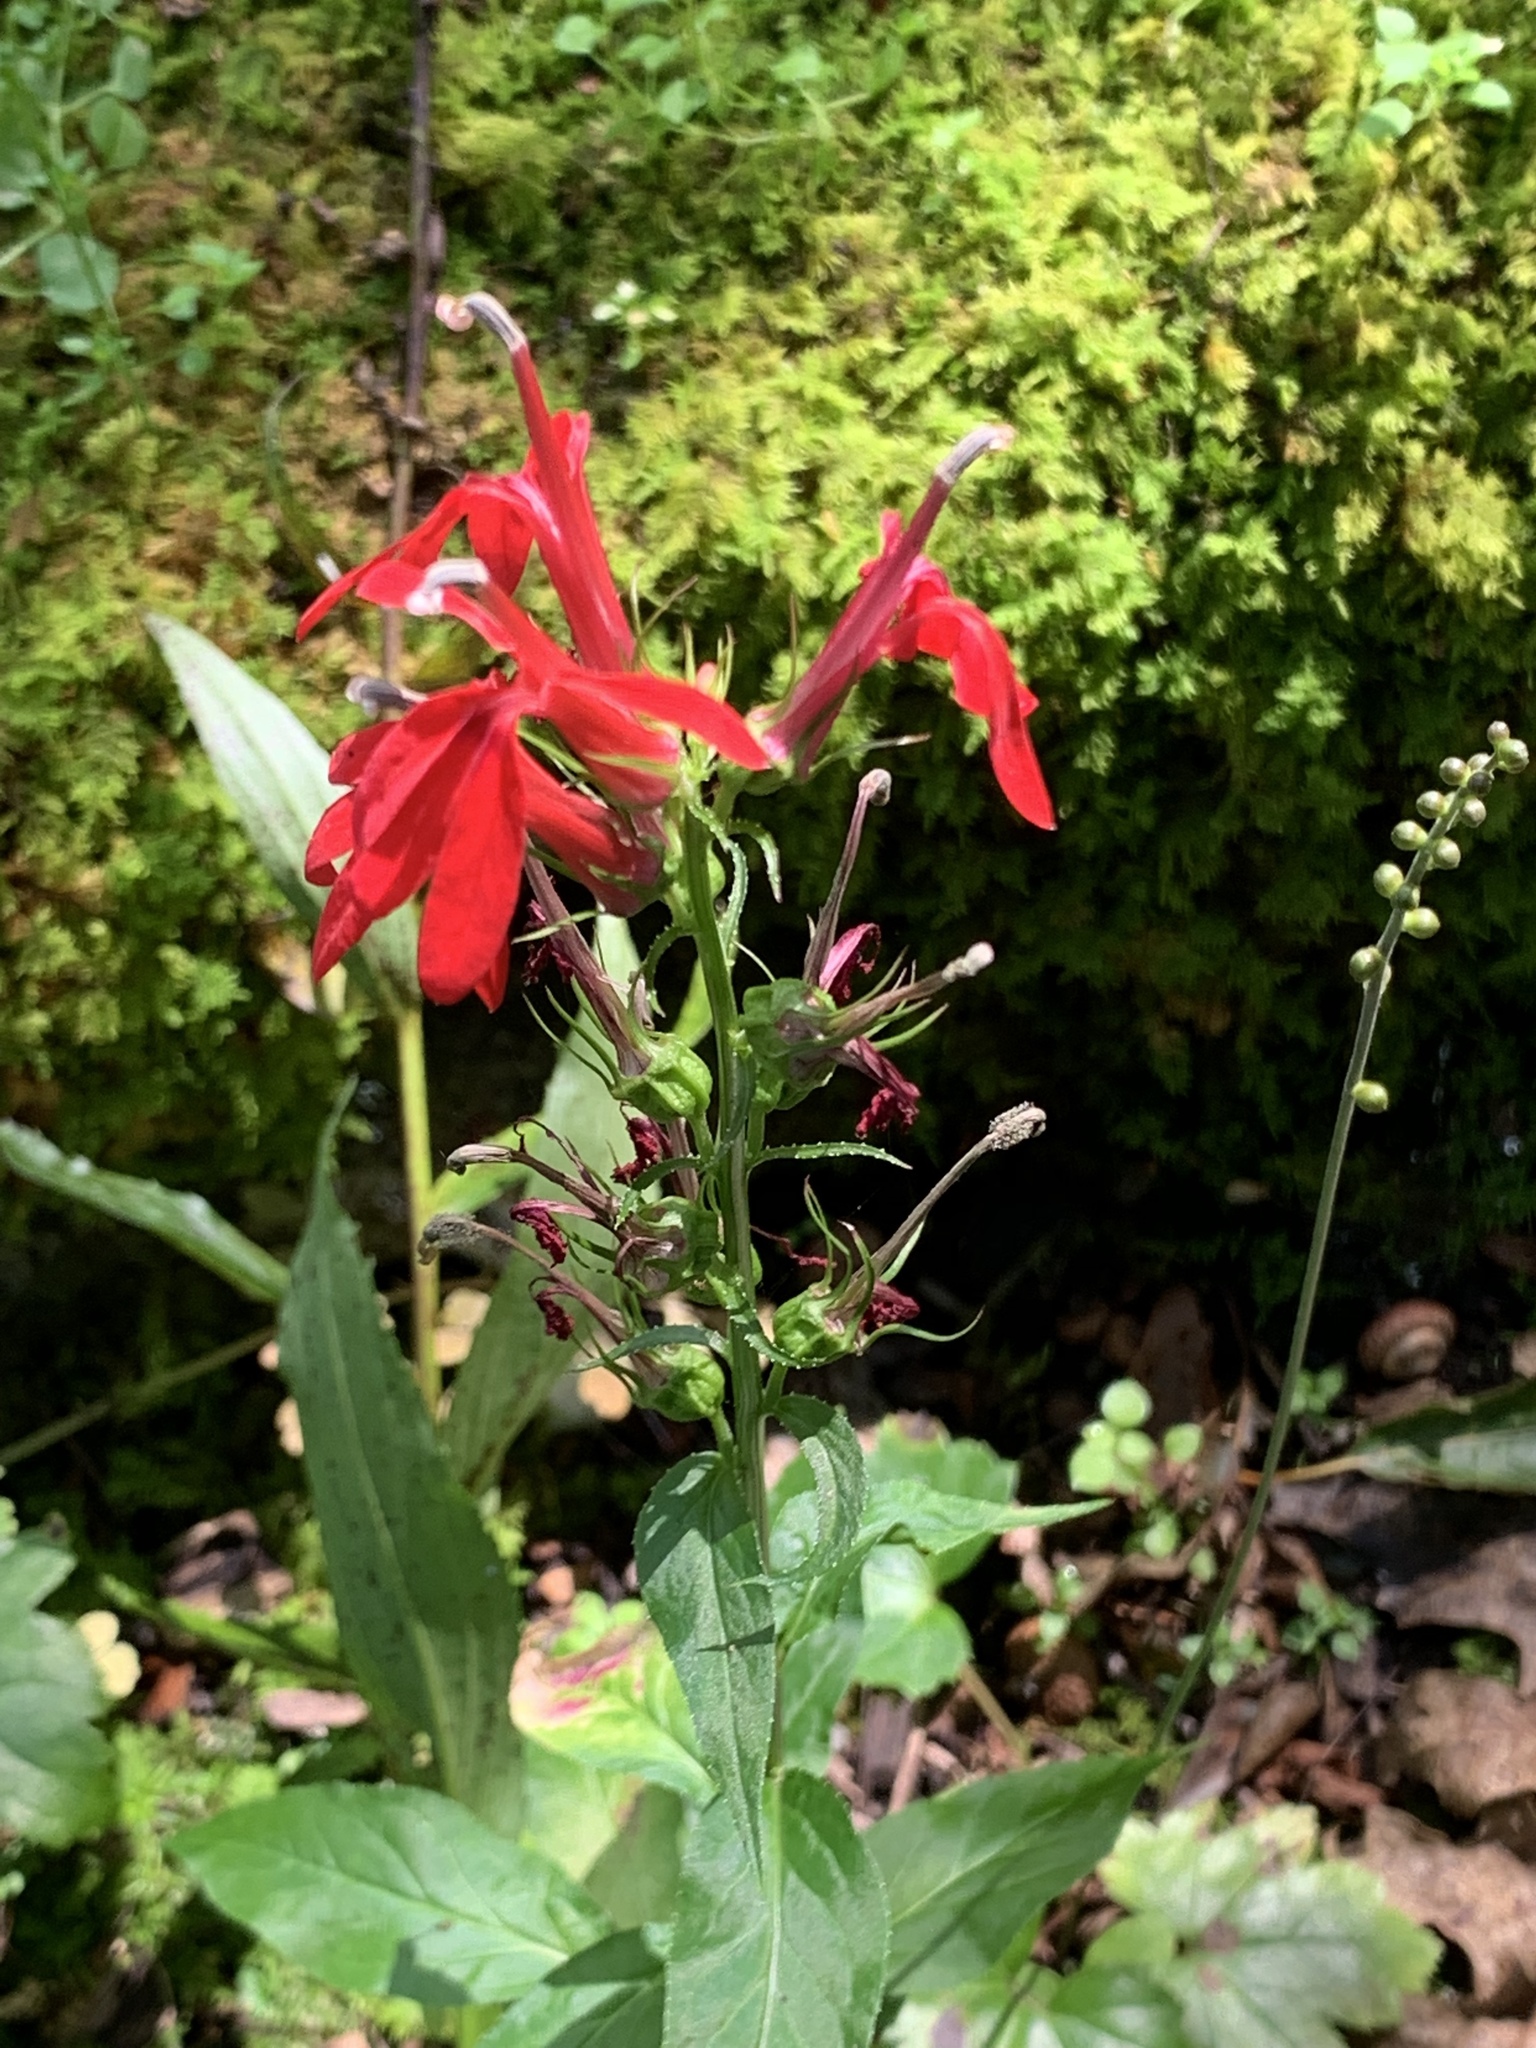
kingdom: Plantae
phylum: Tracheophyta
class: Magnoliopsida
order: Asterales
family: Campanulaceae
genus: Lobelia
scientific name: Lobelia cardinalis
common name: Cardinal flower
